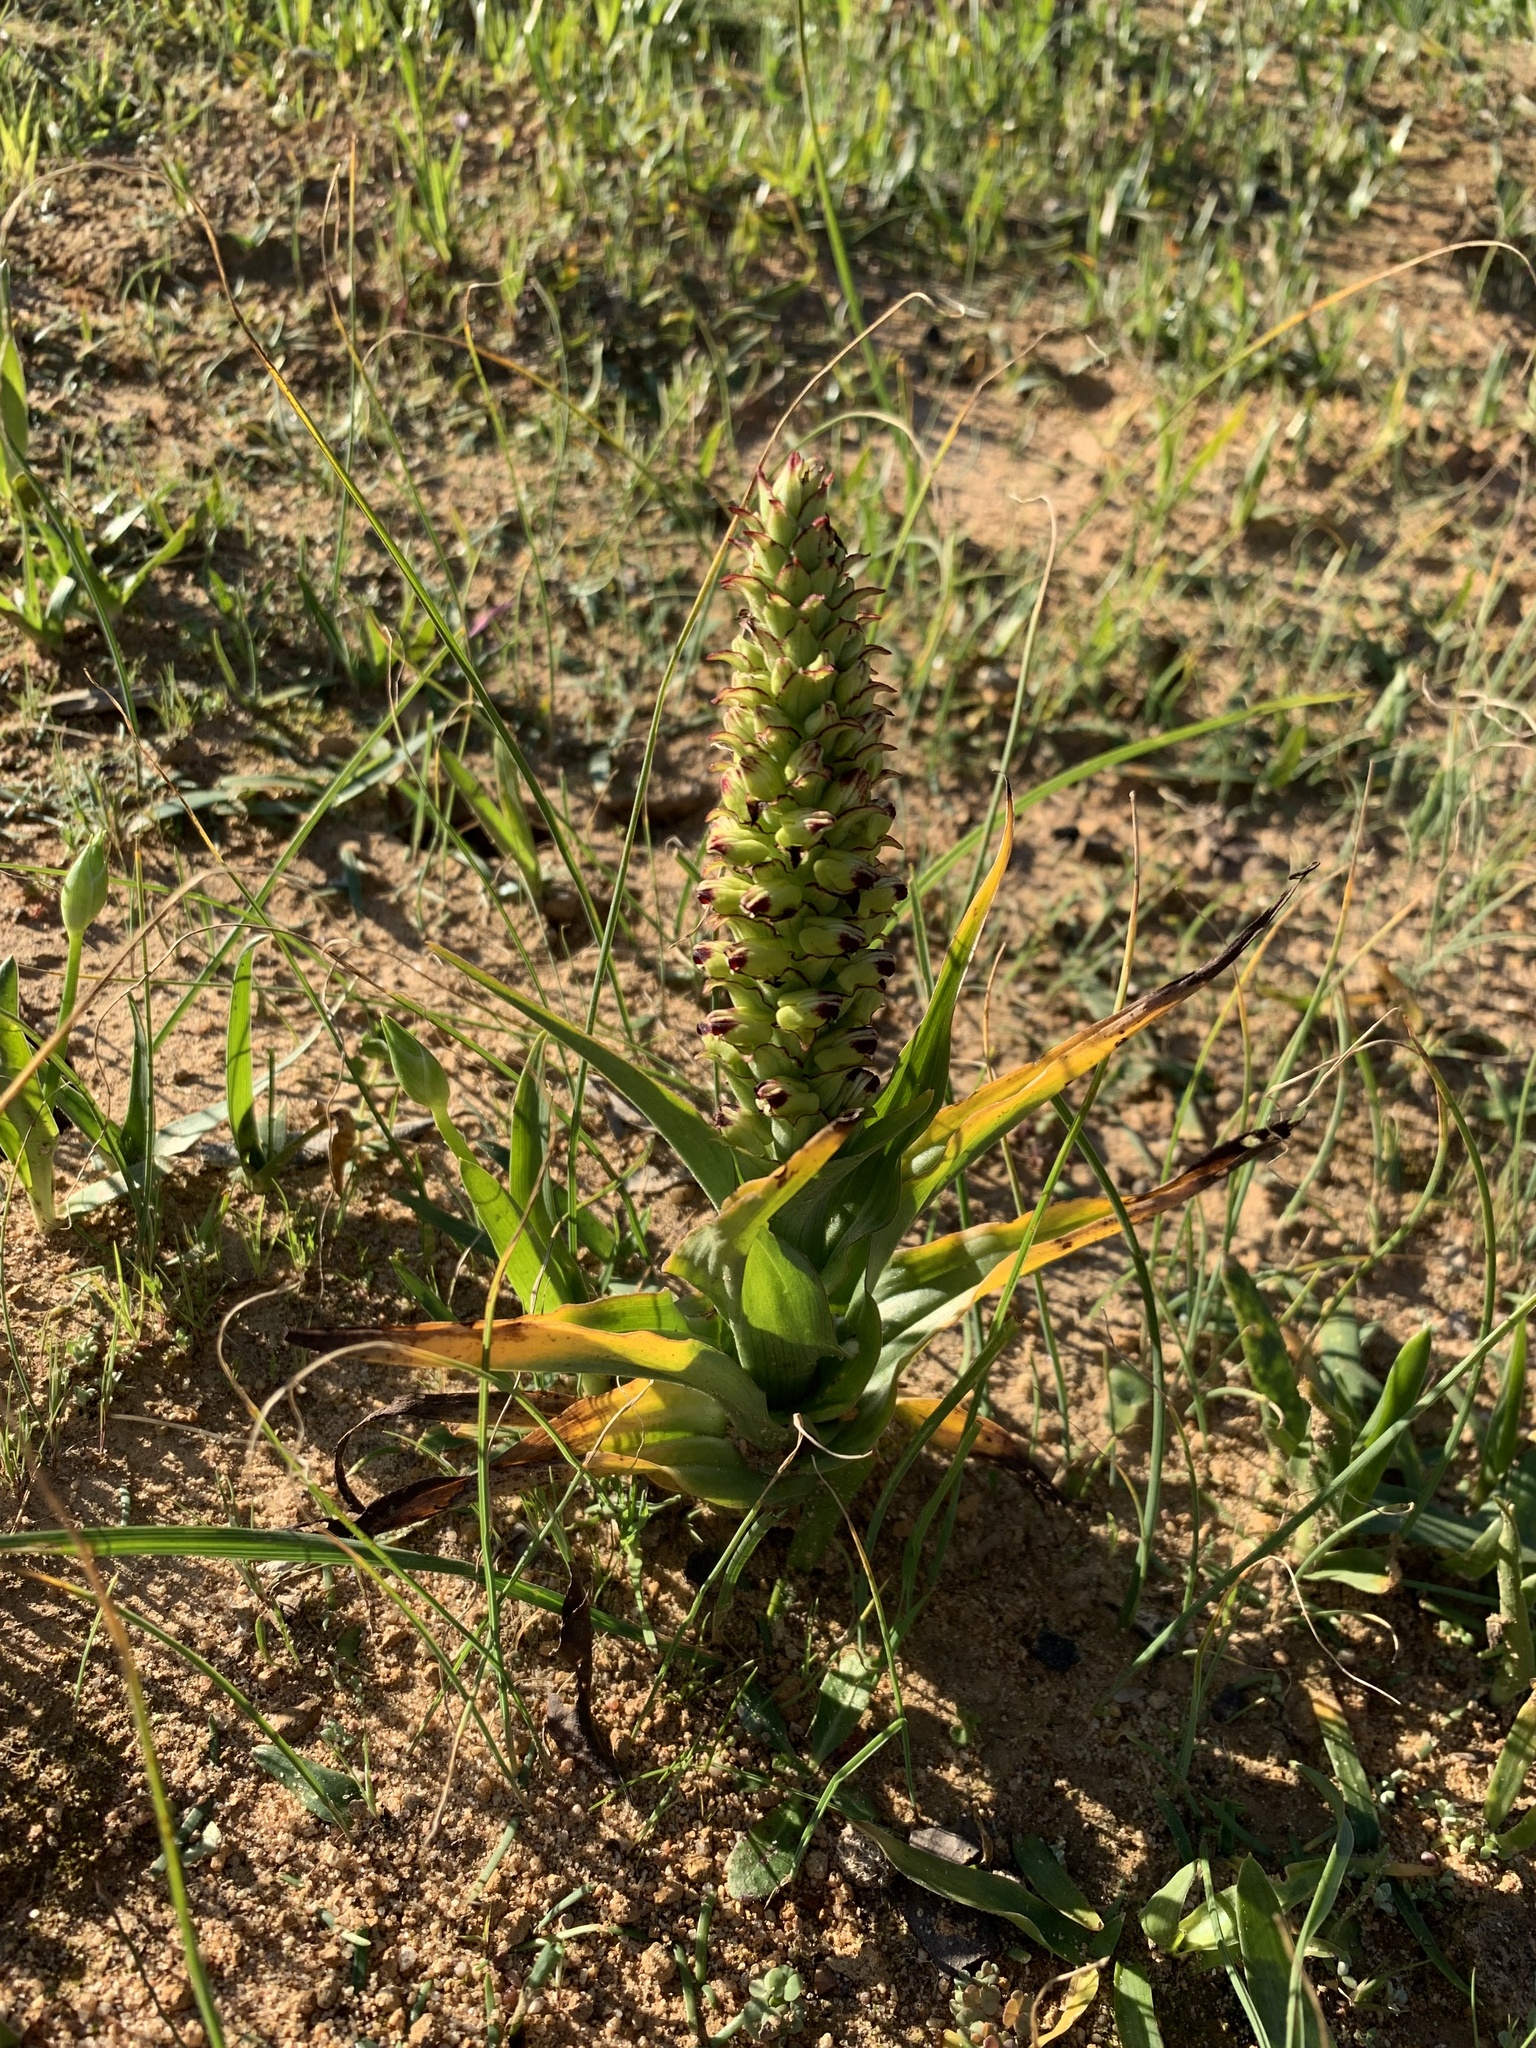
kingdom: Plantae
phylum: Tracheophyta
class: Liliopsida
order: Asparagales
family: Orchidaceae
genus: Corycium
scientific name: Corycium orobanchoides
